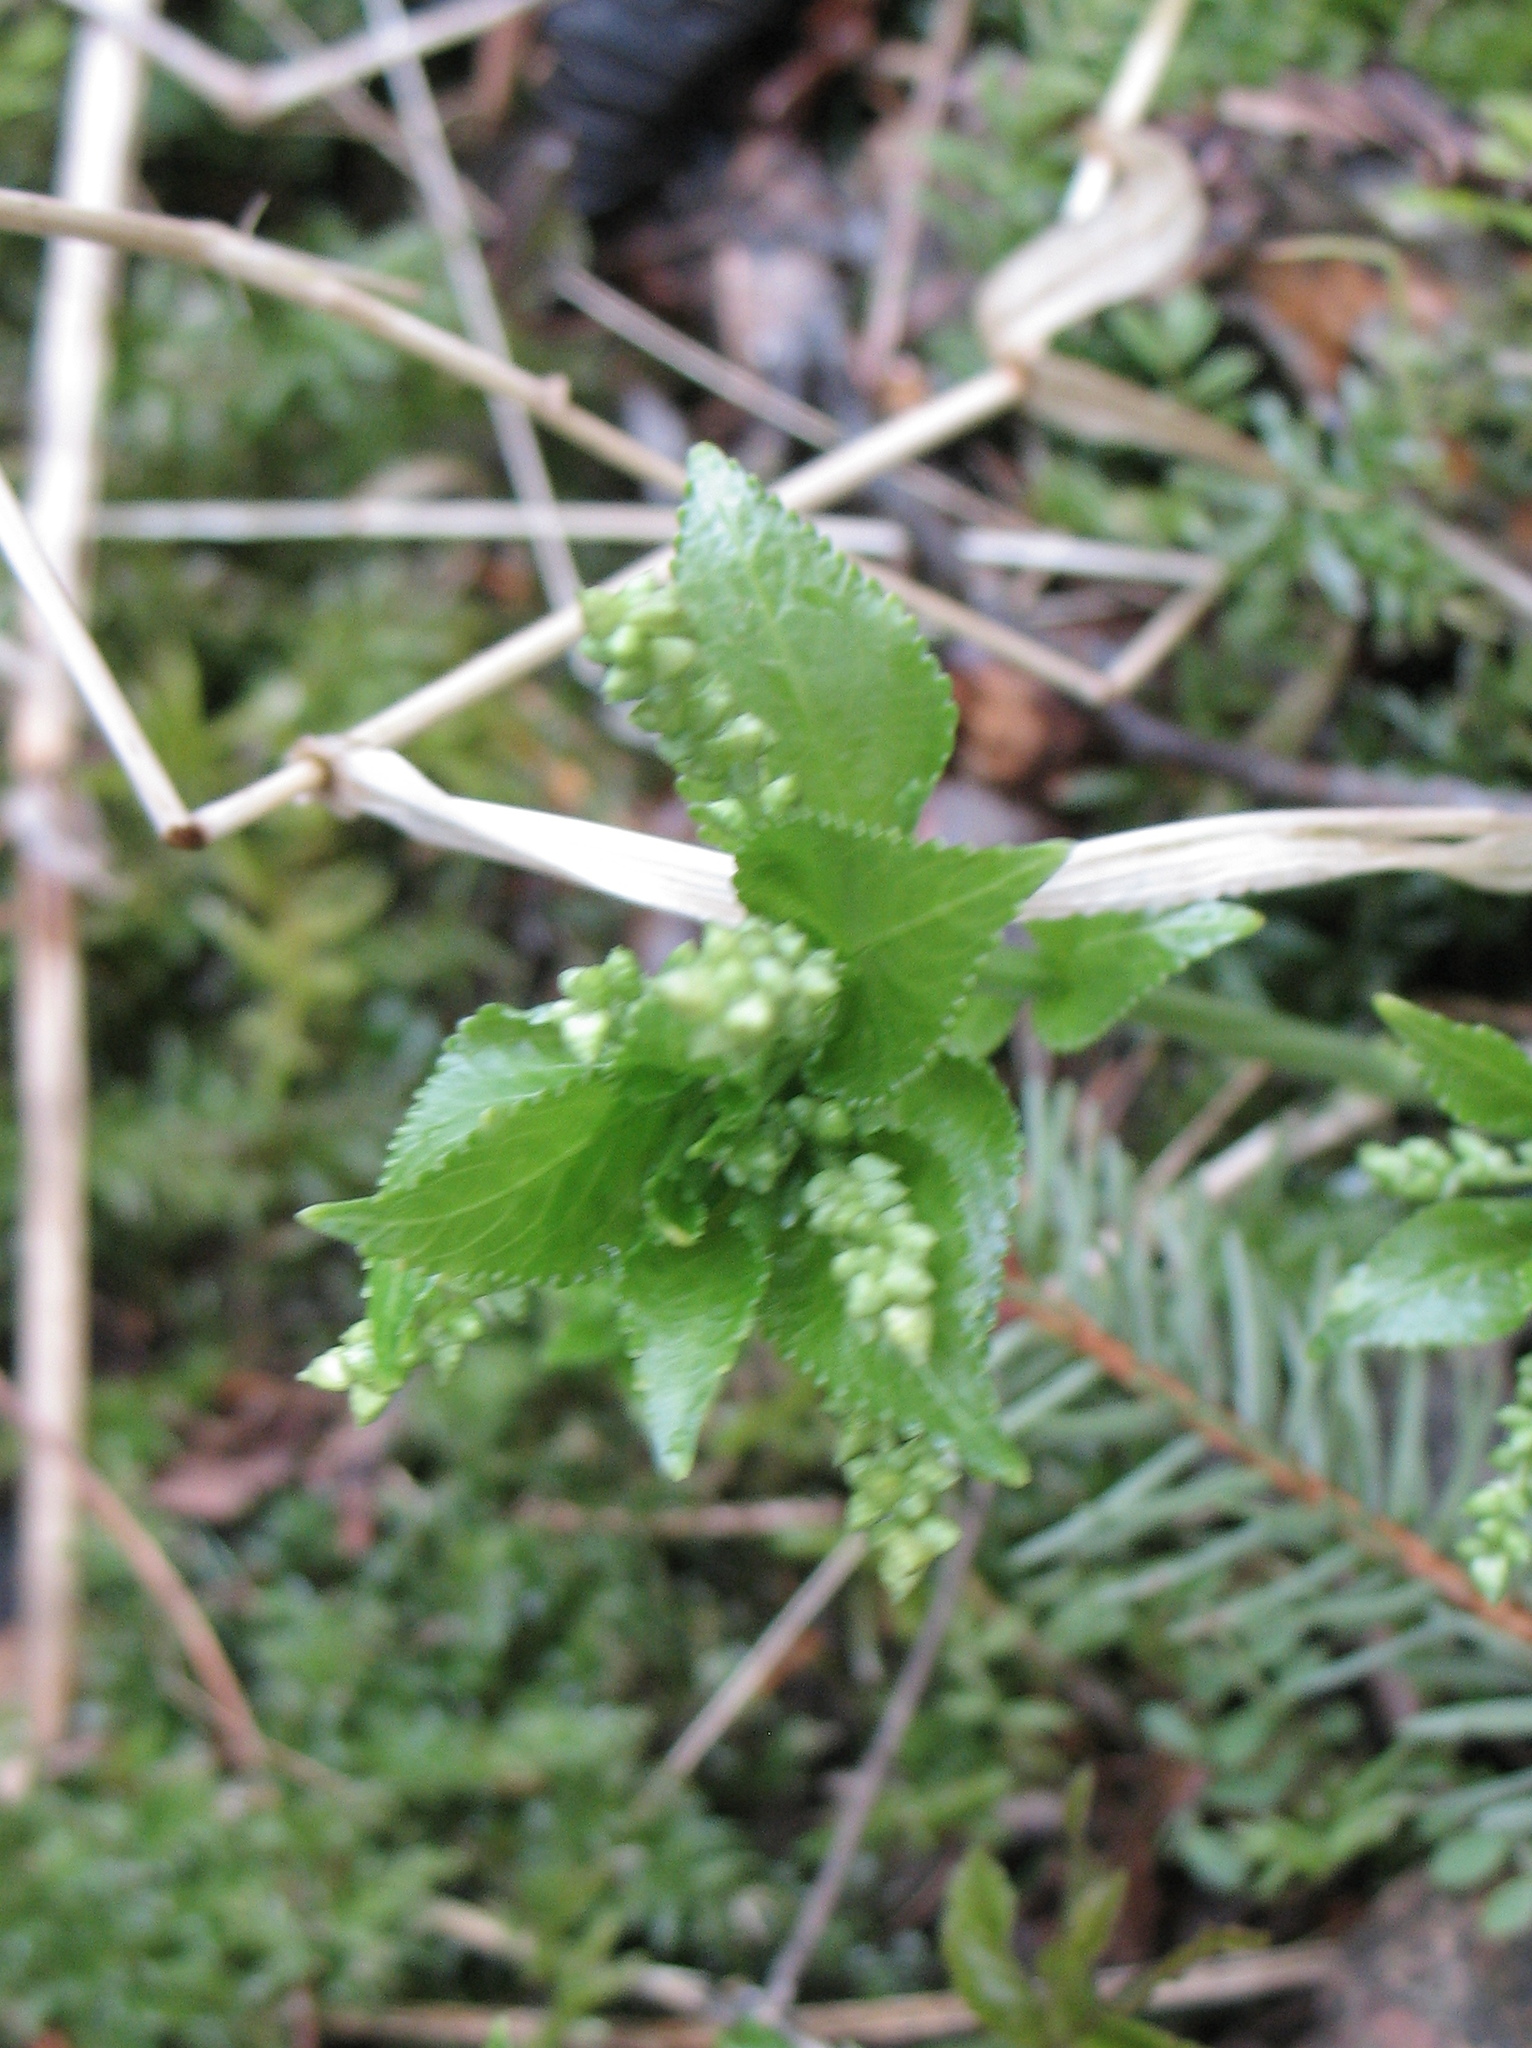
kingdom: Plantae
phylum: Tracheophyta
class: Magnoliopsida
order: Malpighiales
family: Euphorbiaceae
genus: Mercurialis
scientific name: Mercurialis perennis
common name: Dog mercury
